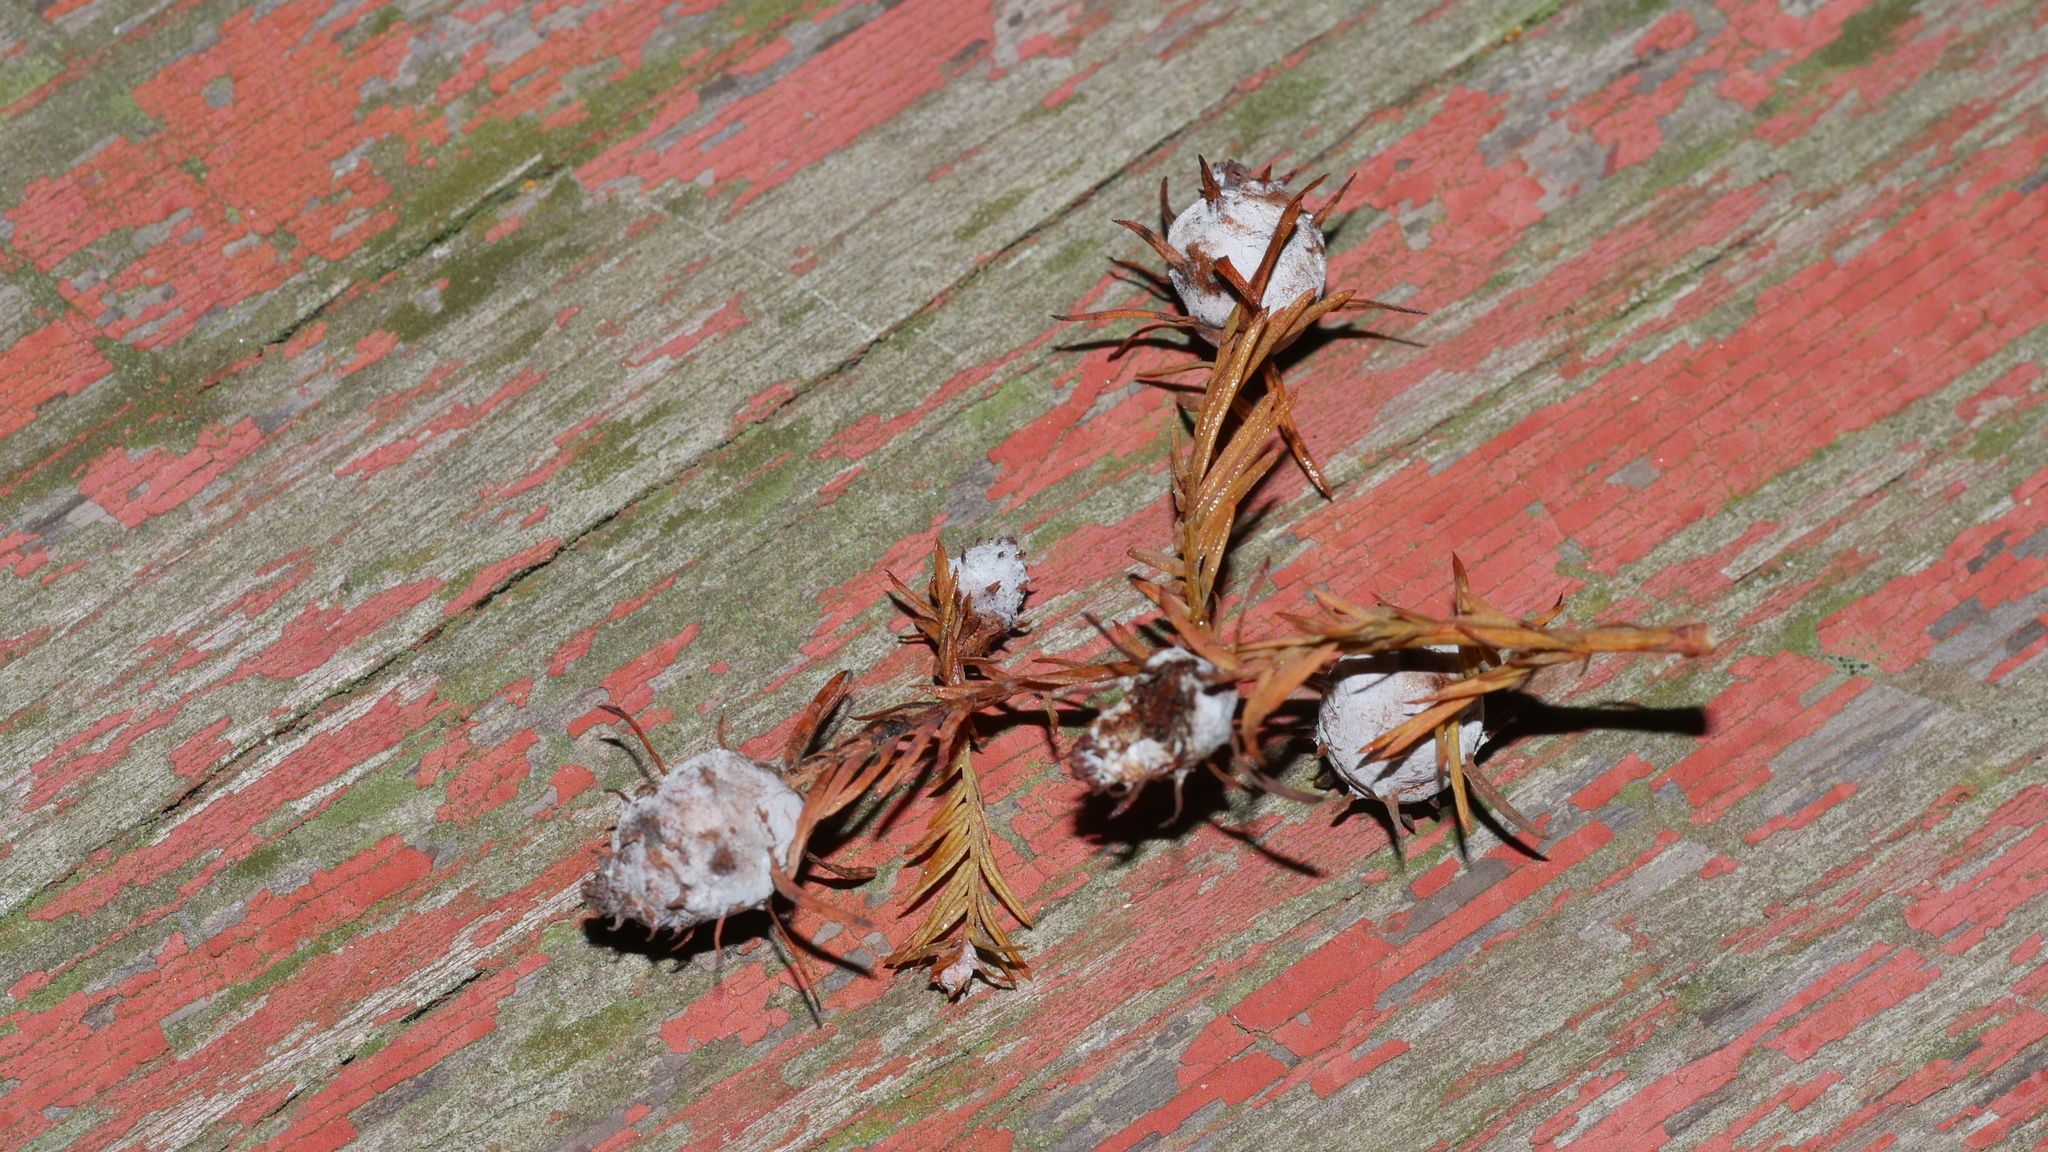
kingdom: Animalia
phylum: Arthropoda
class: Insecta
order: Diptera
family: Cecidomyiidae
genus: Taxodiomyia
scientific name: Taxodiomyia cupressiananassa
